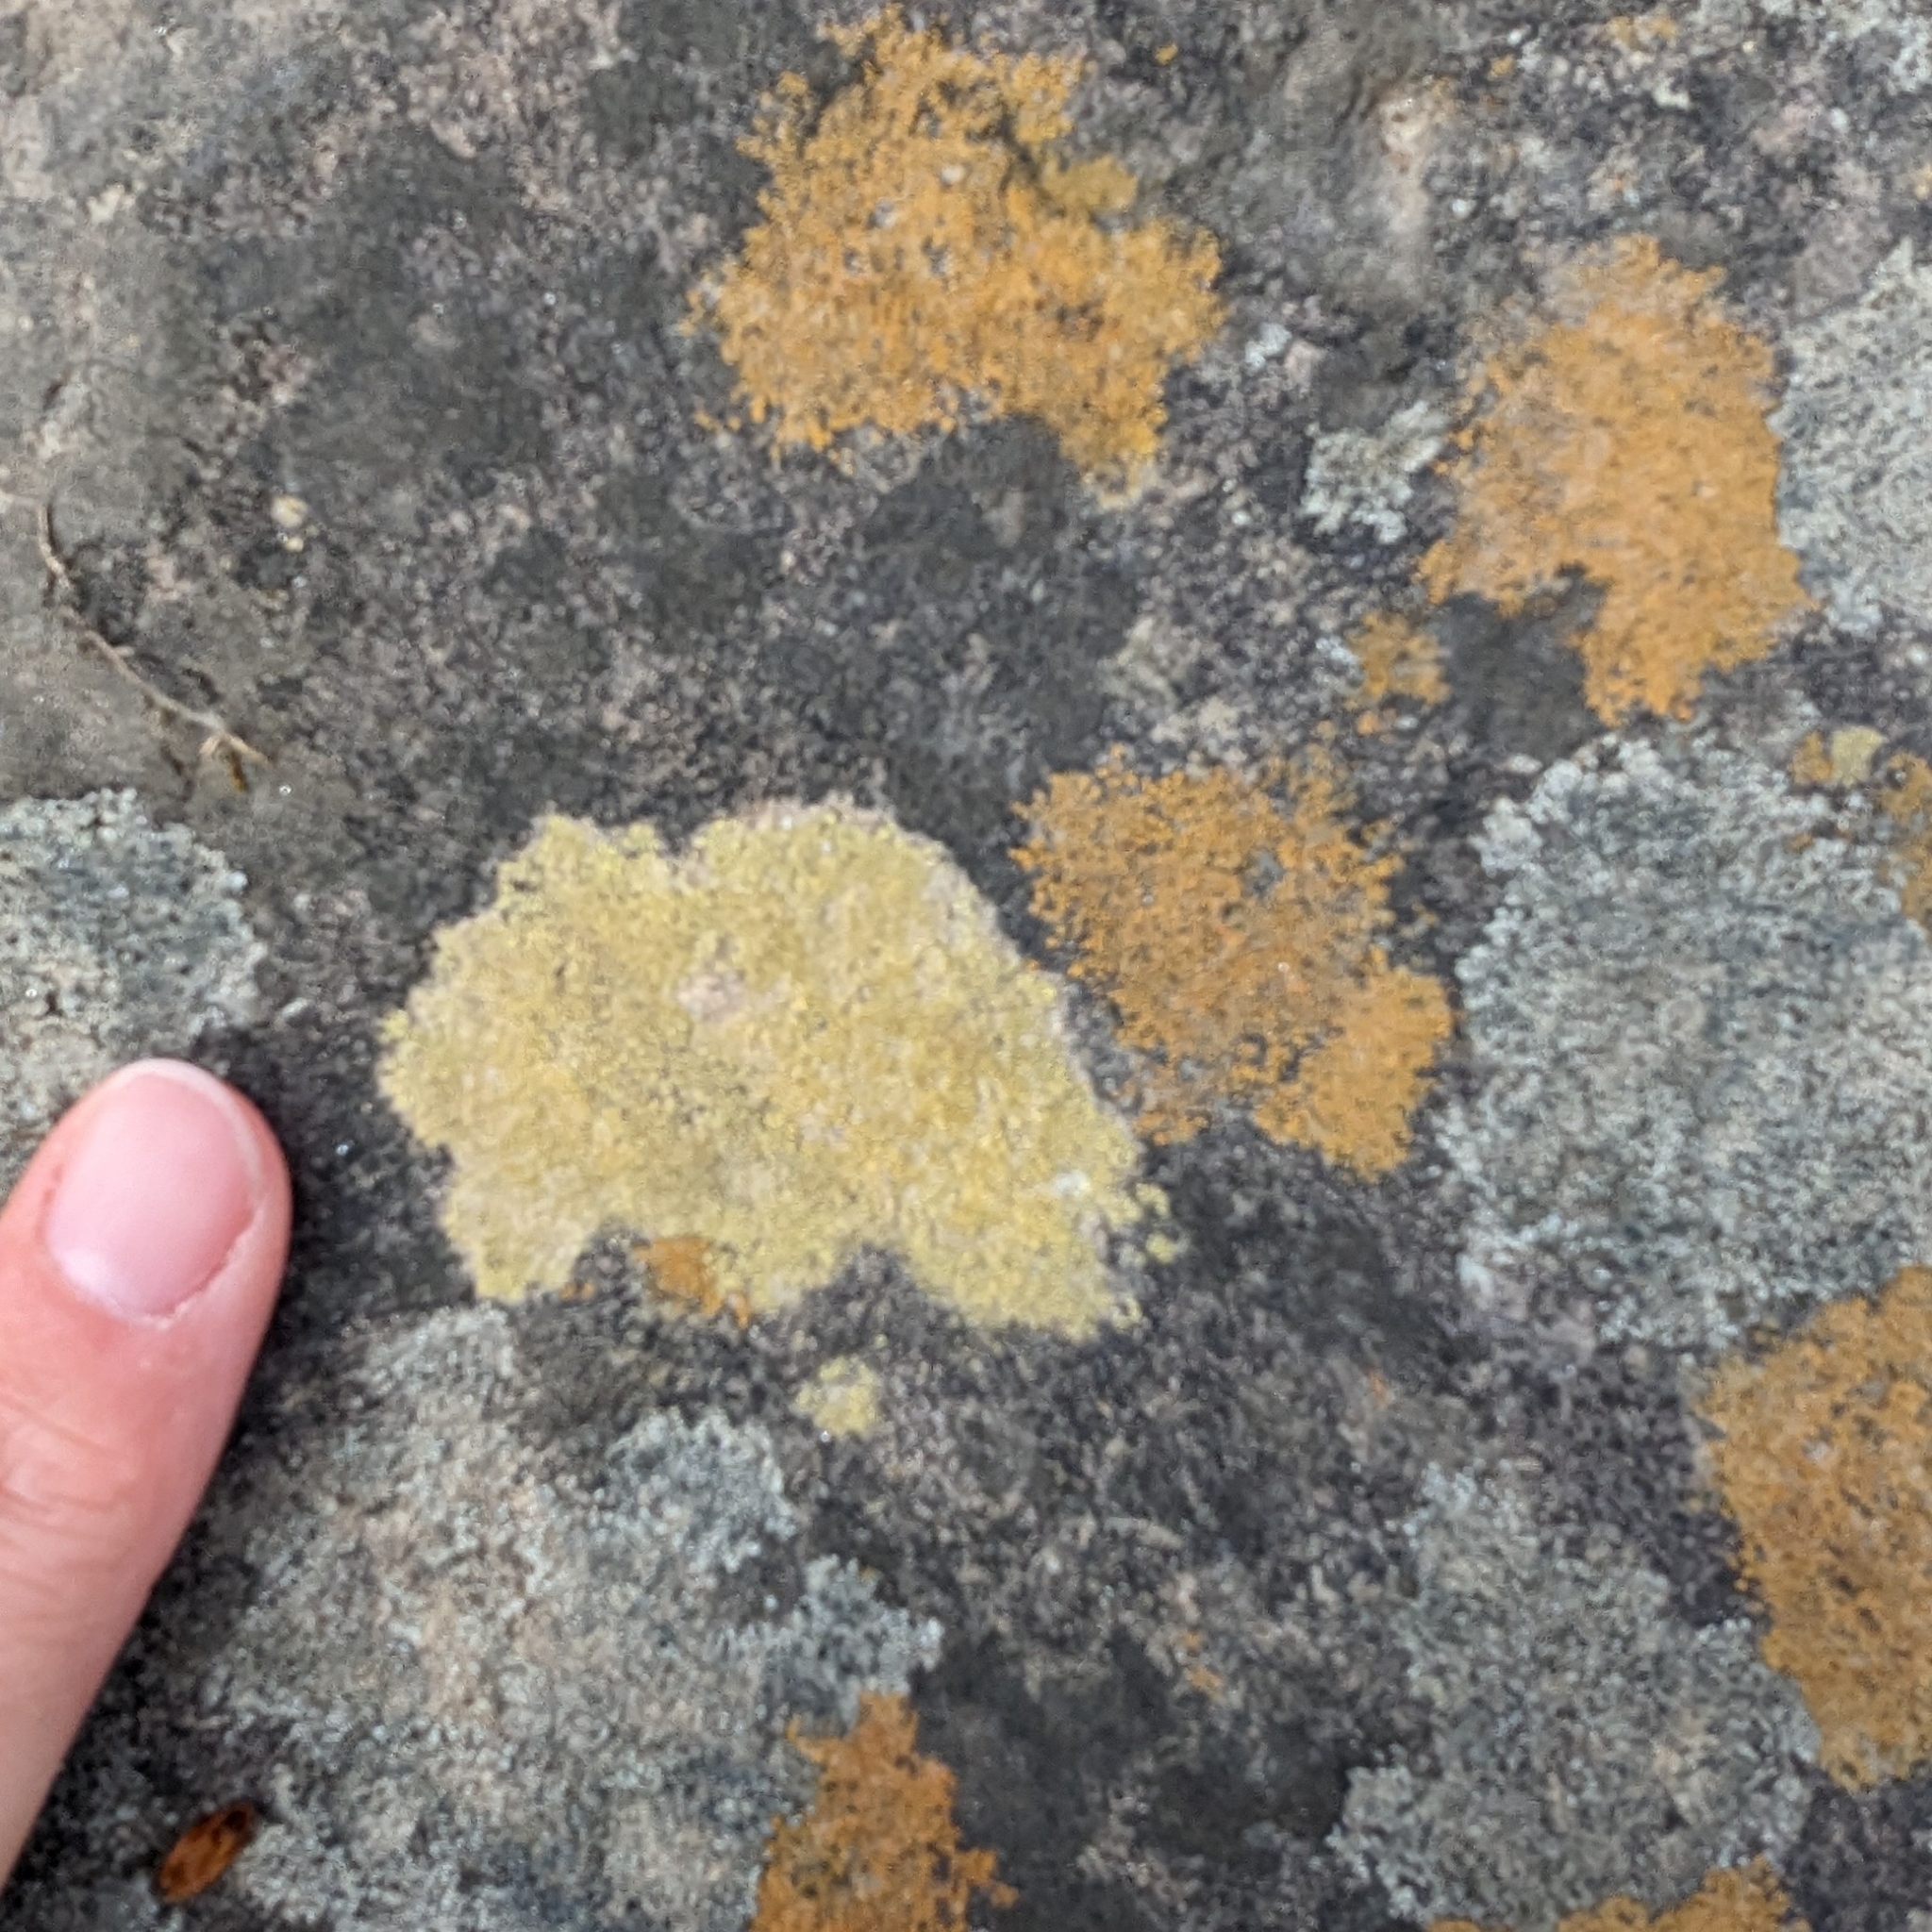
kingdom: Fungi
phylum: Ascomycota
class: Lecanoromycetes
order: Teloschistales
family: Teloschistaceae
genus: Gyalolechia
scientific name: Gyalolechia flavovirescens
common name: Sulphur firedot
